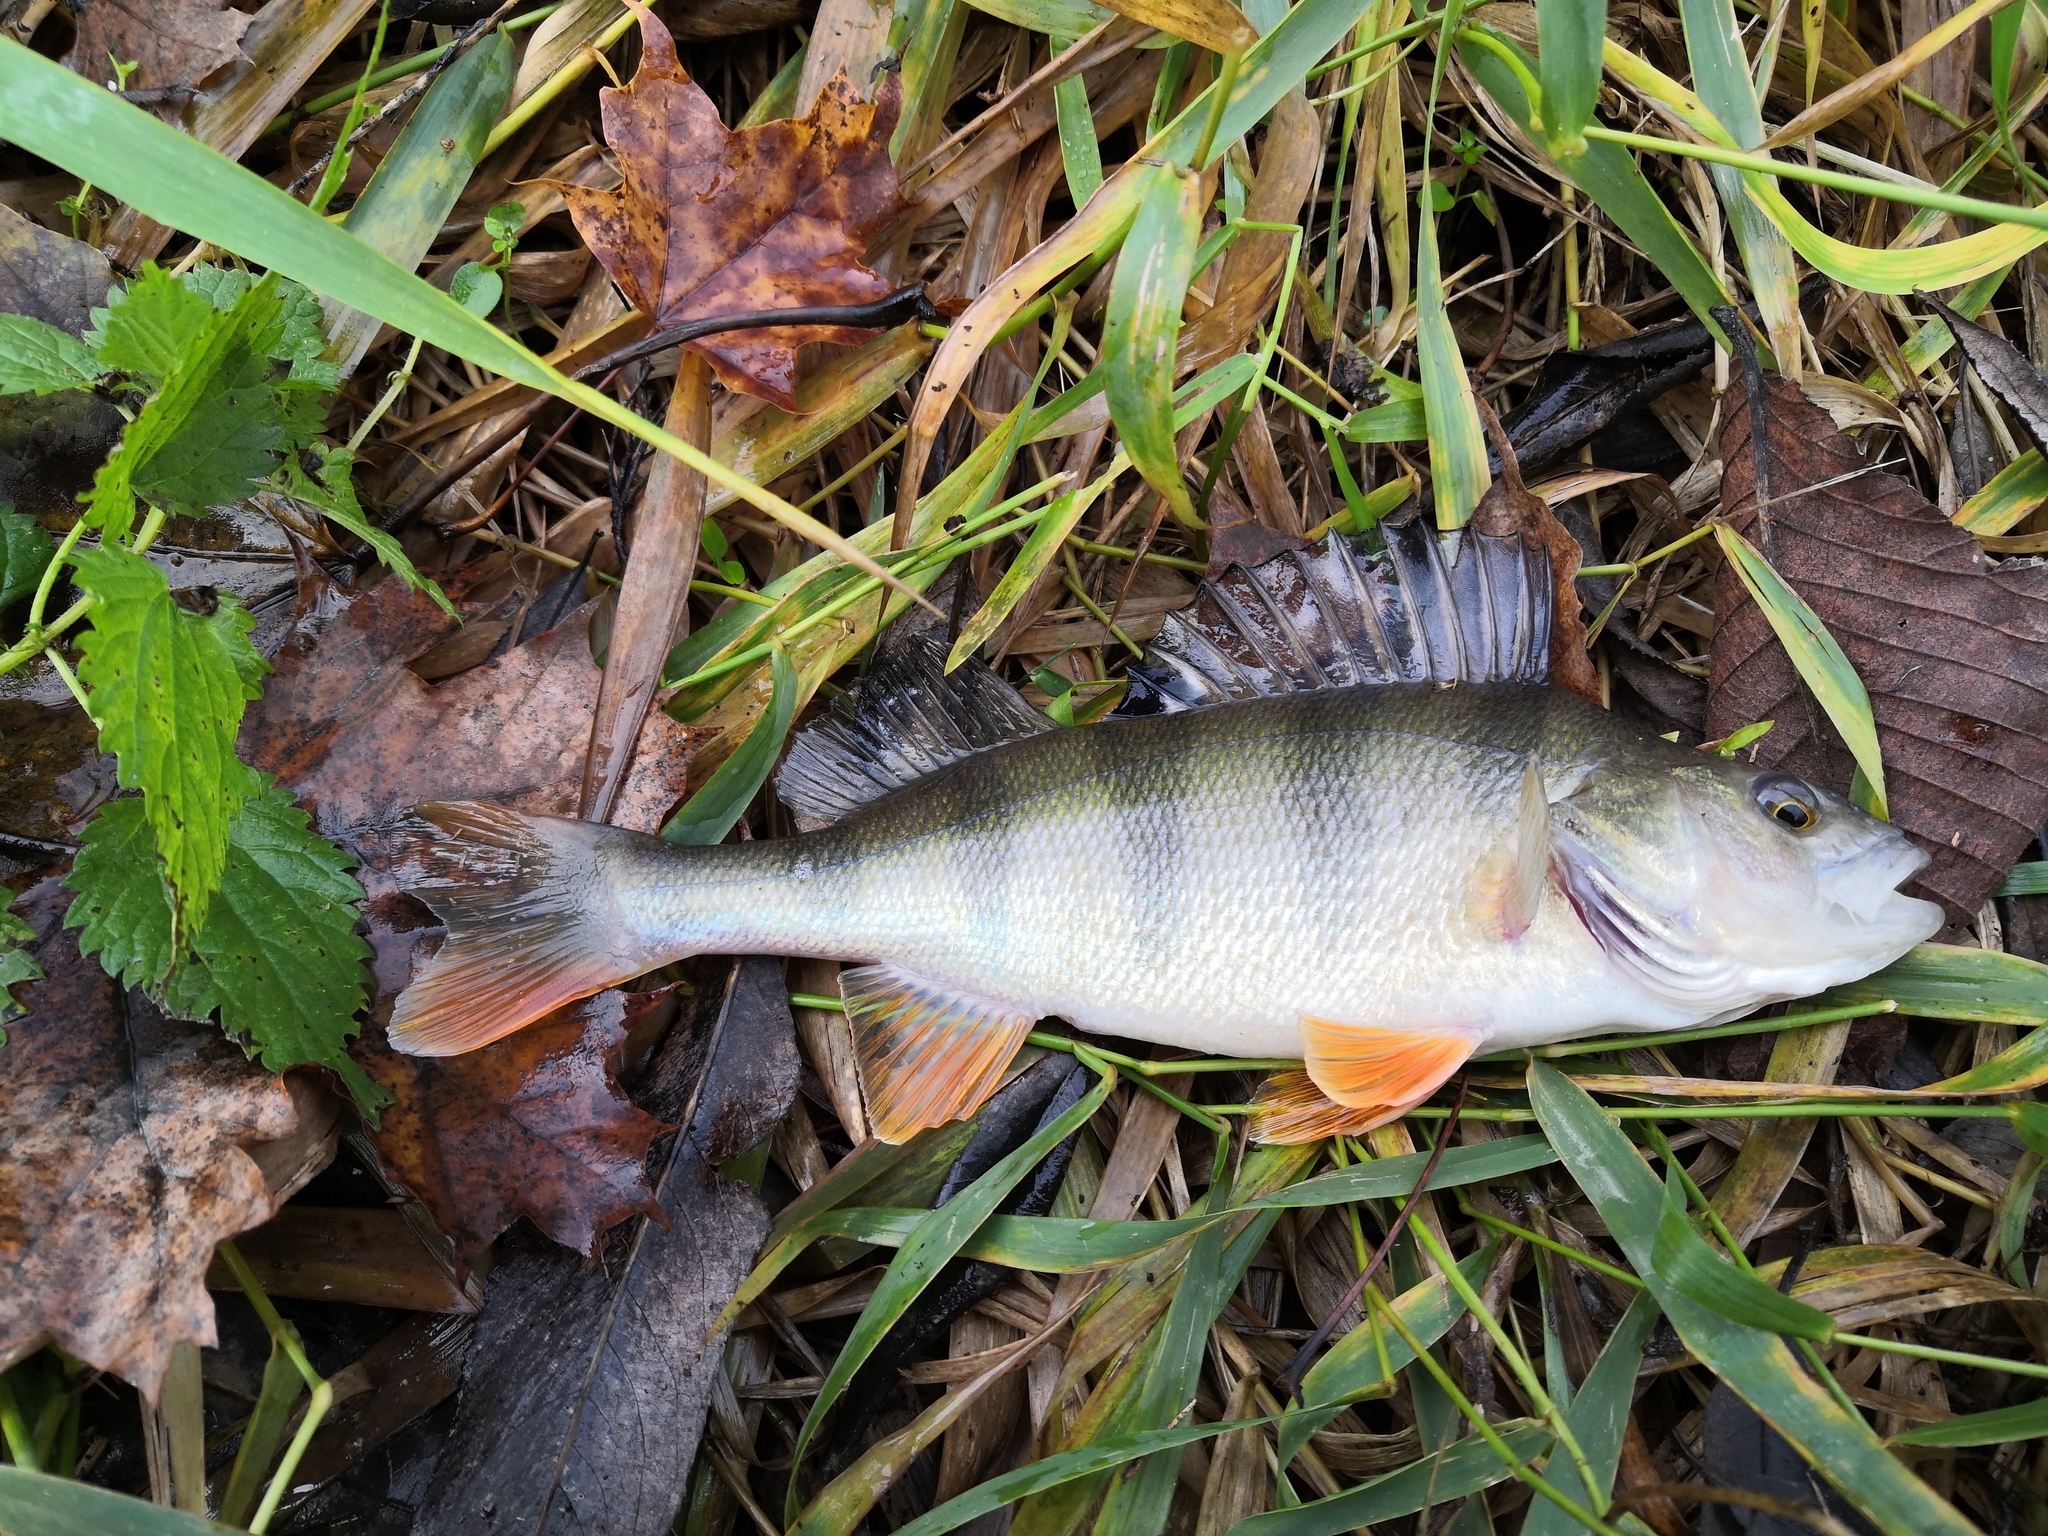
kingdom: Animalia
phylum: Chordata
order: Perciformes
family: Percidae
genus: Perca
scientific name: Perca fluviatilis
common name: Perch
